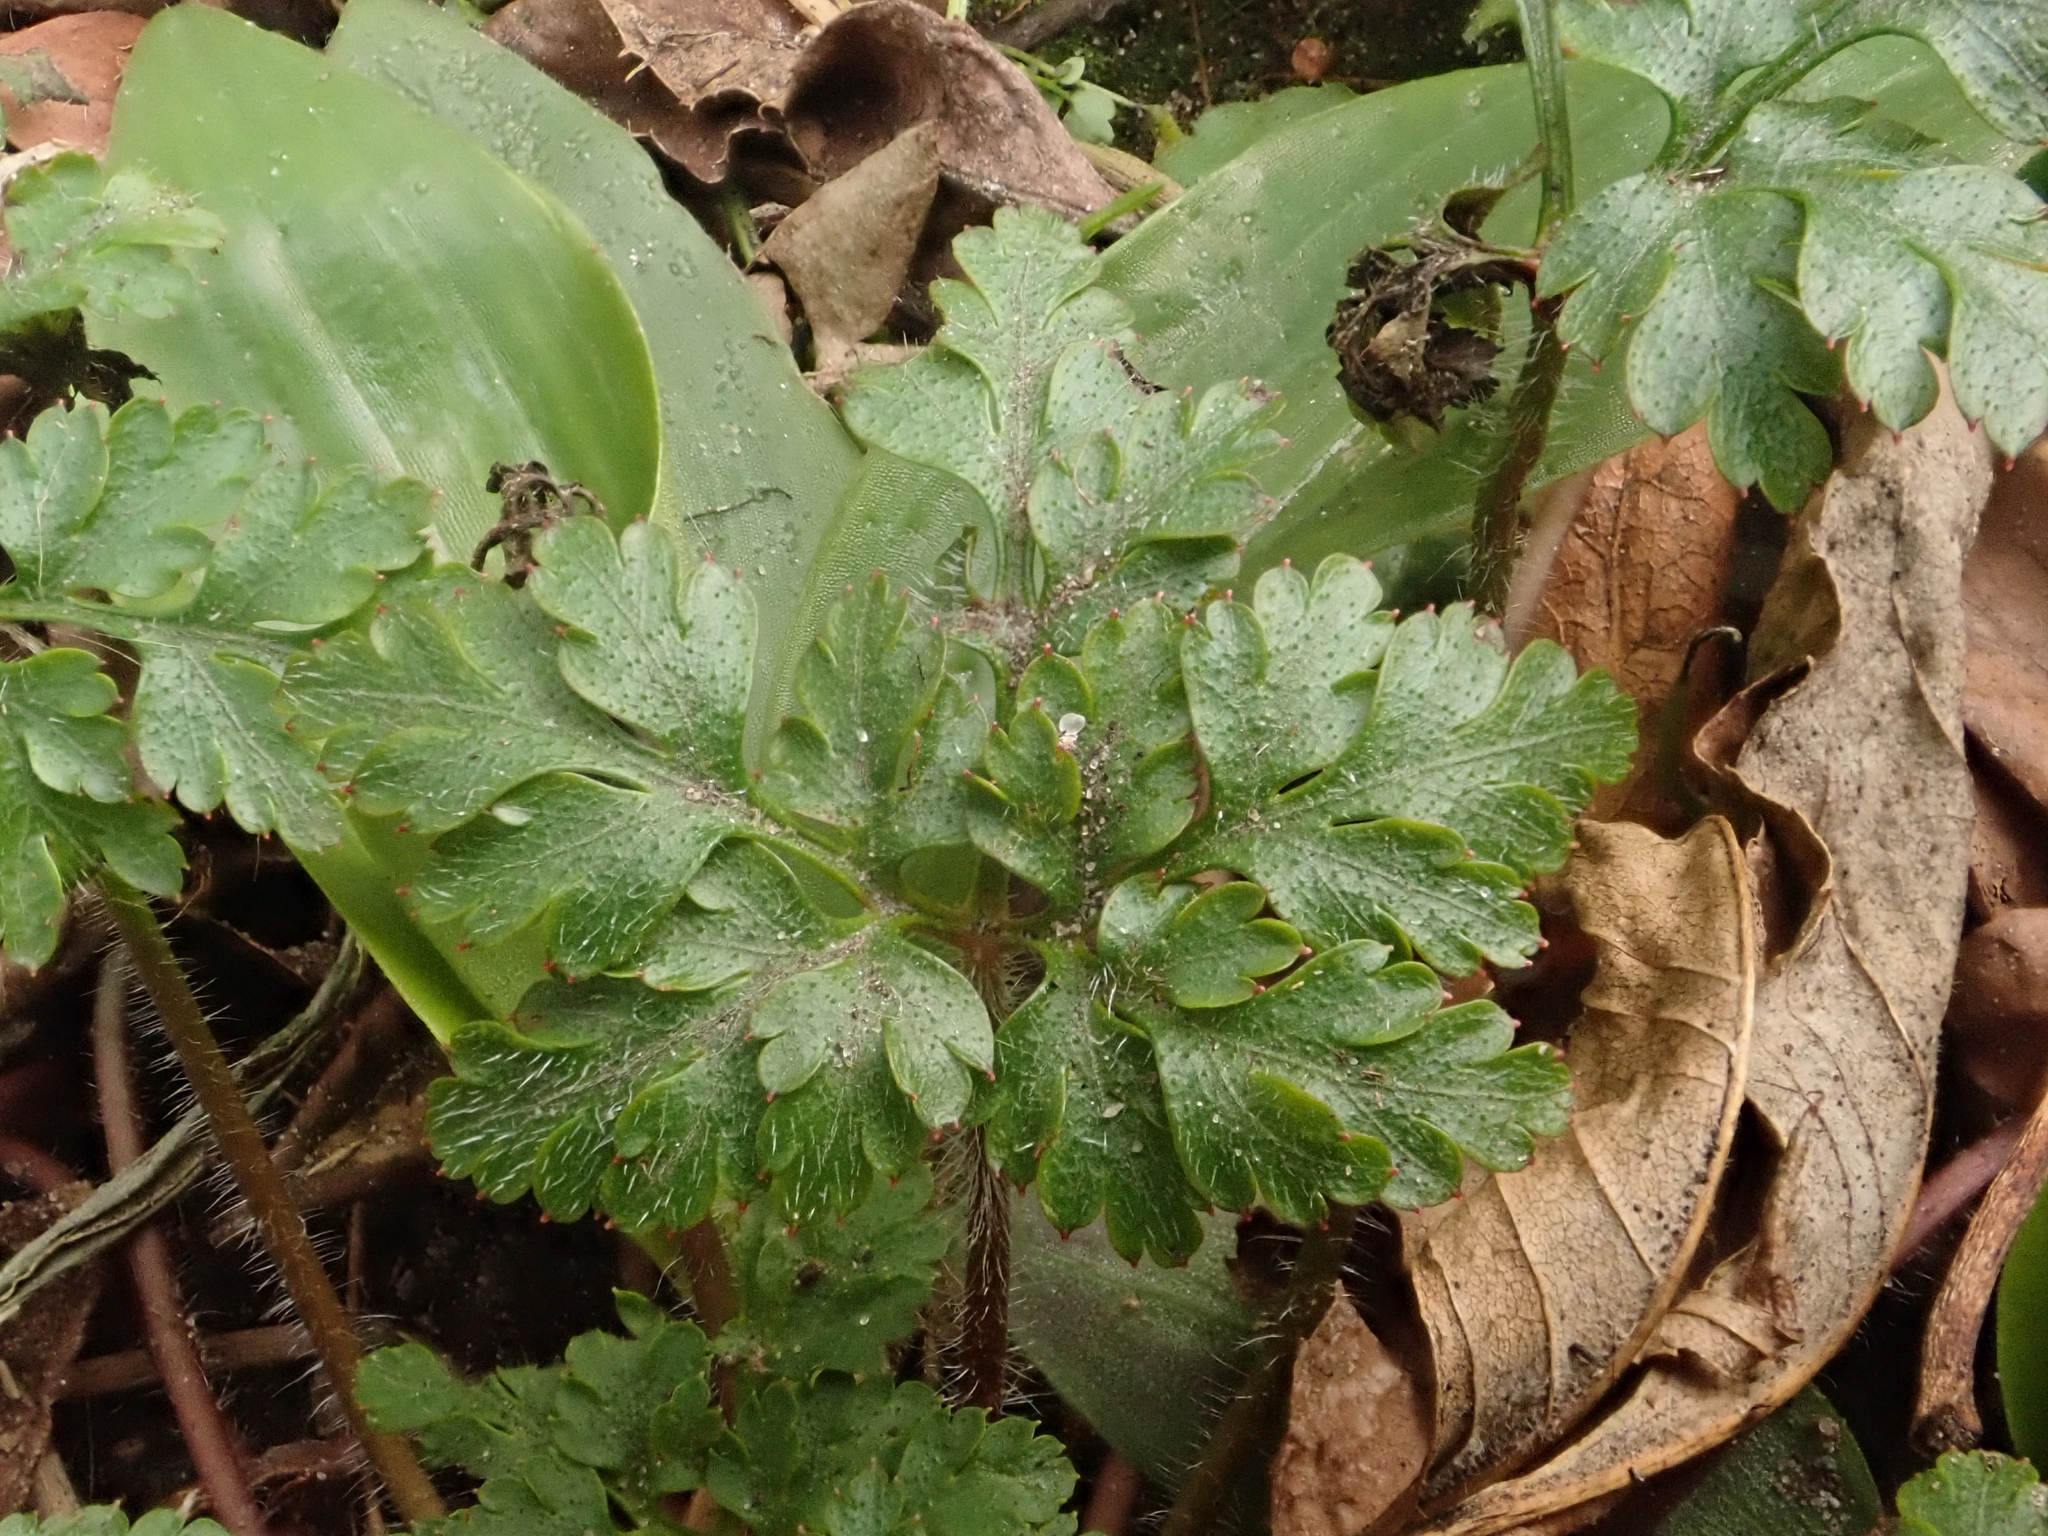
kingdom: Plantae
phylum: Tracheophyta
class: Magnoliopsida
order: Geraniales
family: Geraniaceae
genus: Geranium
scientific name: Geranium robertianum
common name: Herb-robert
